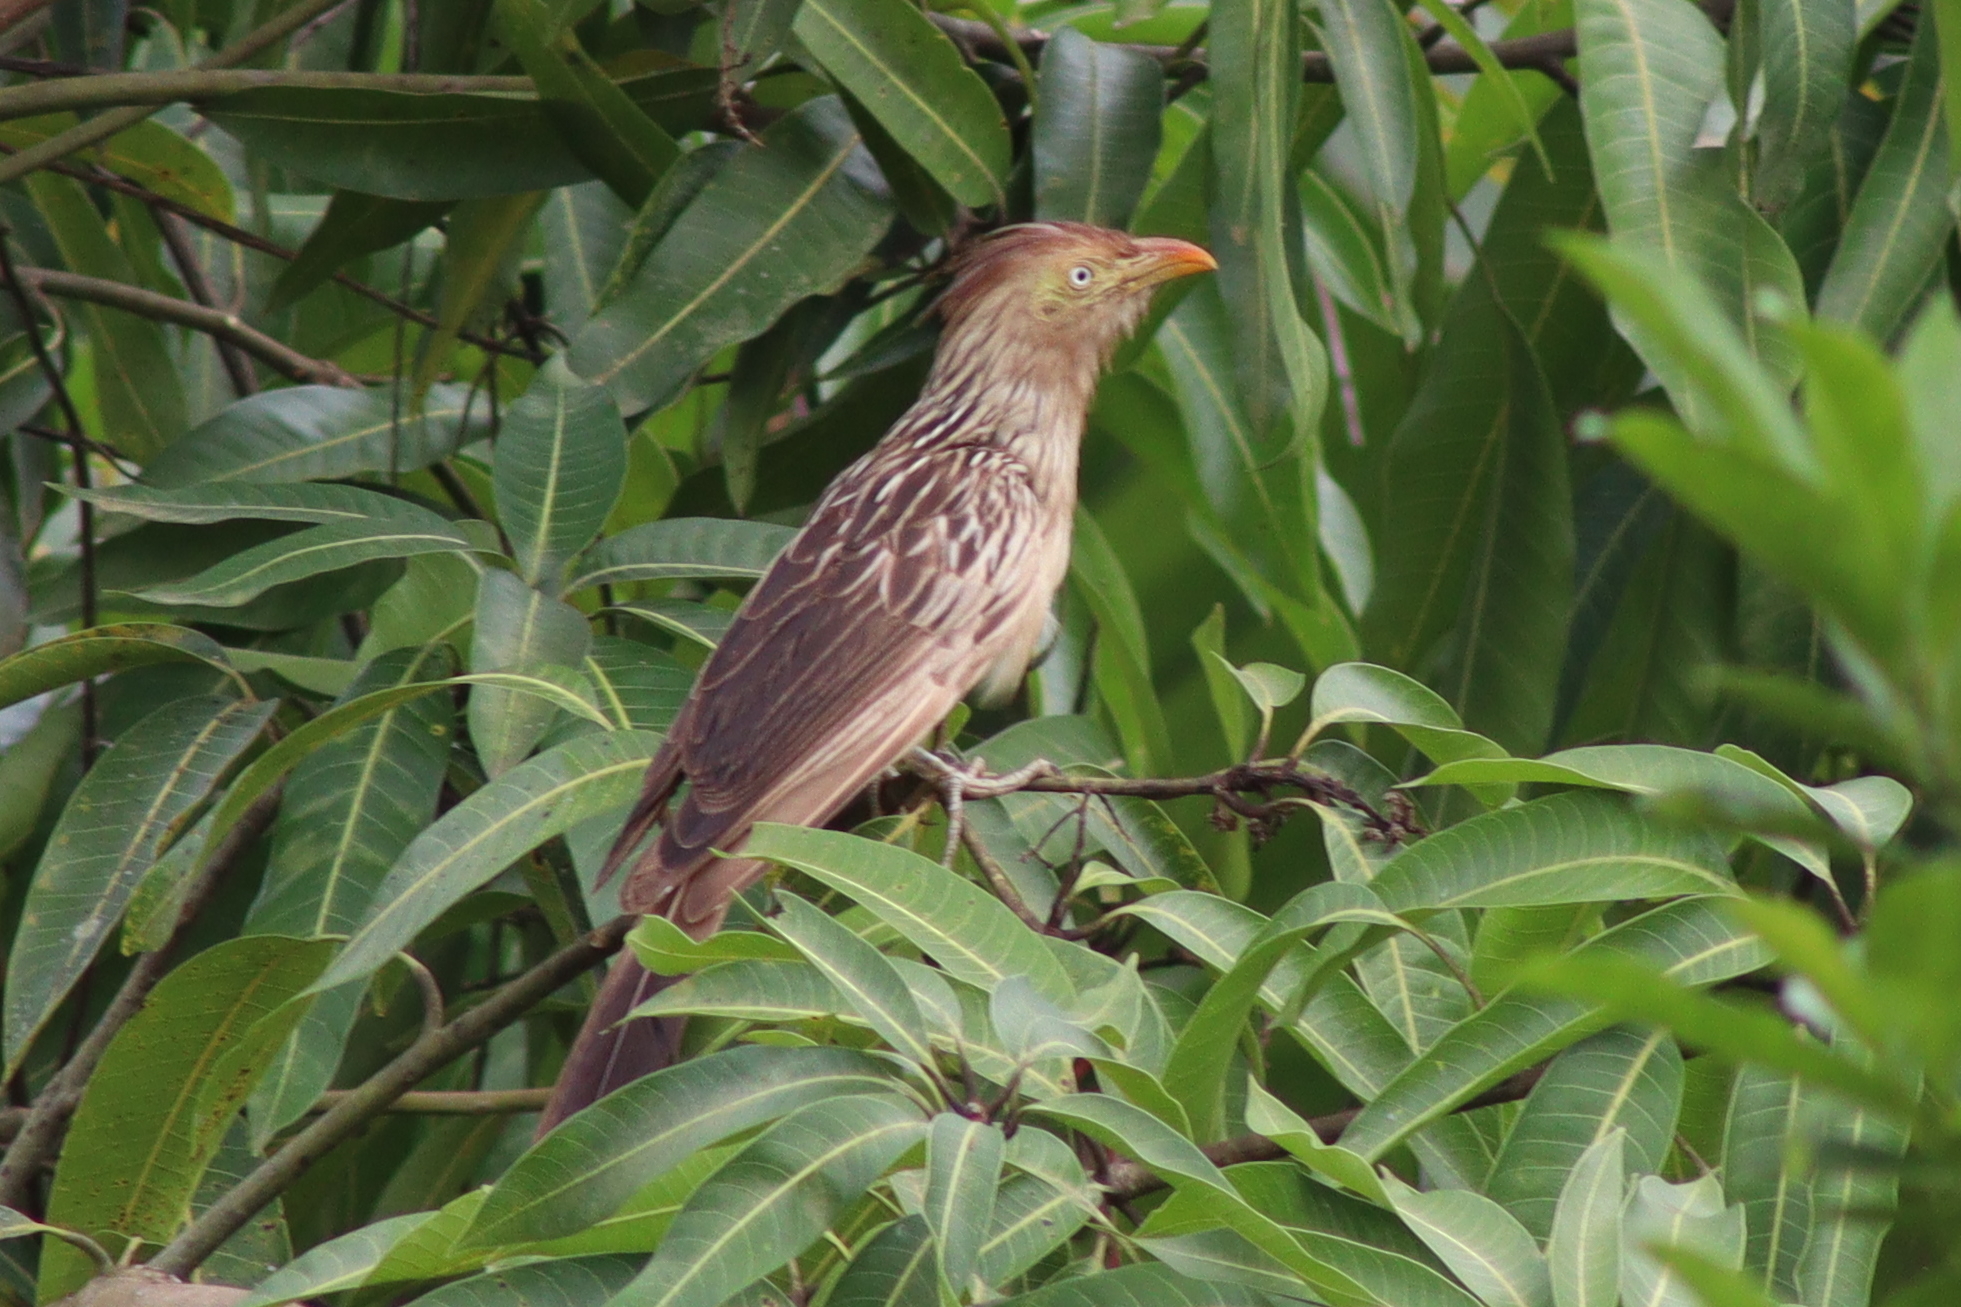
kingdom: Animalia
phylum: Chordata
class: Aves
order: Cuculiformes
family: Cuculidae
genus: Guira
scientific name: Guira guira
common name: Guira cuckoo
